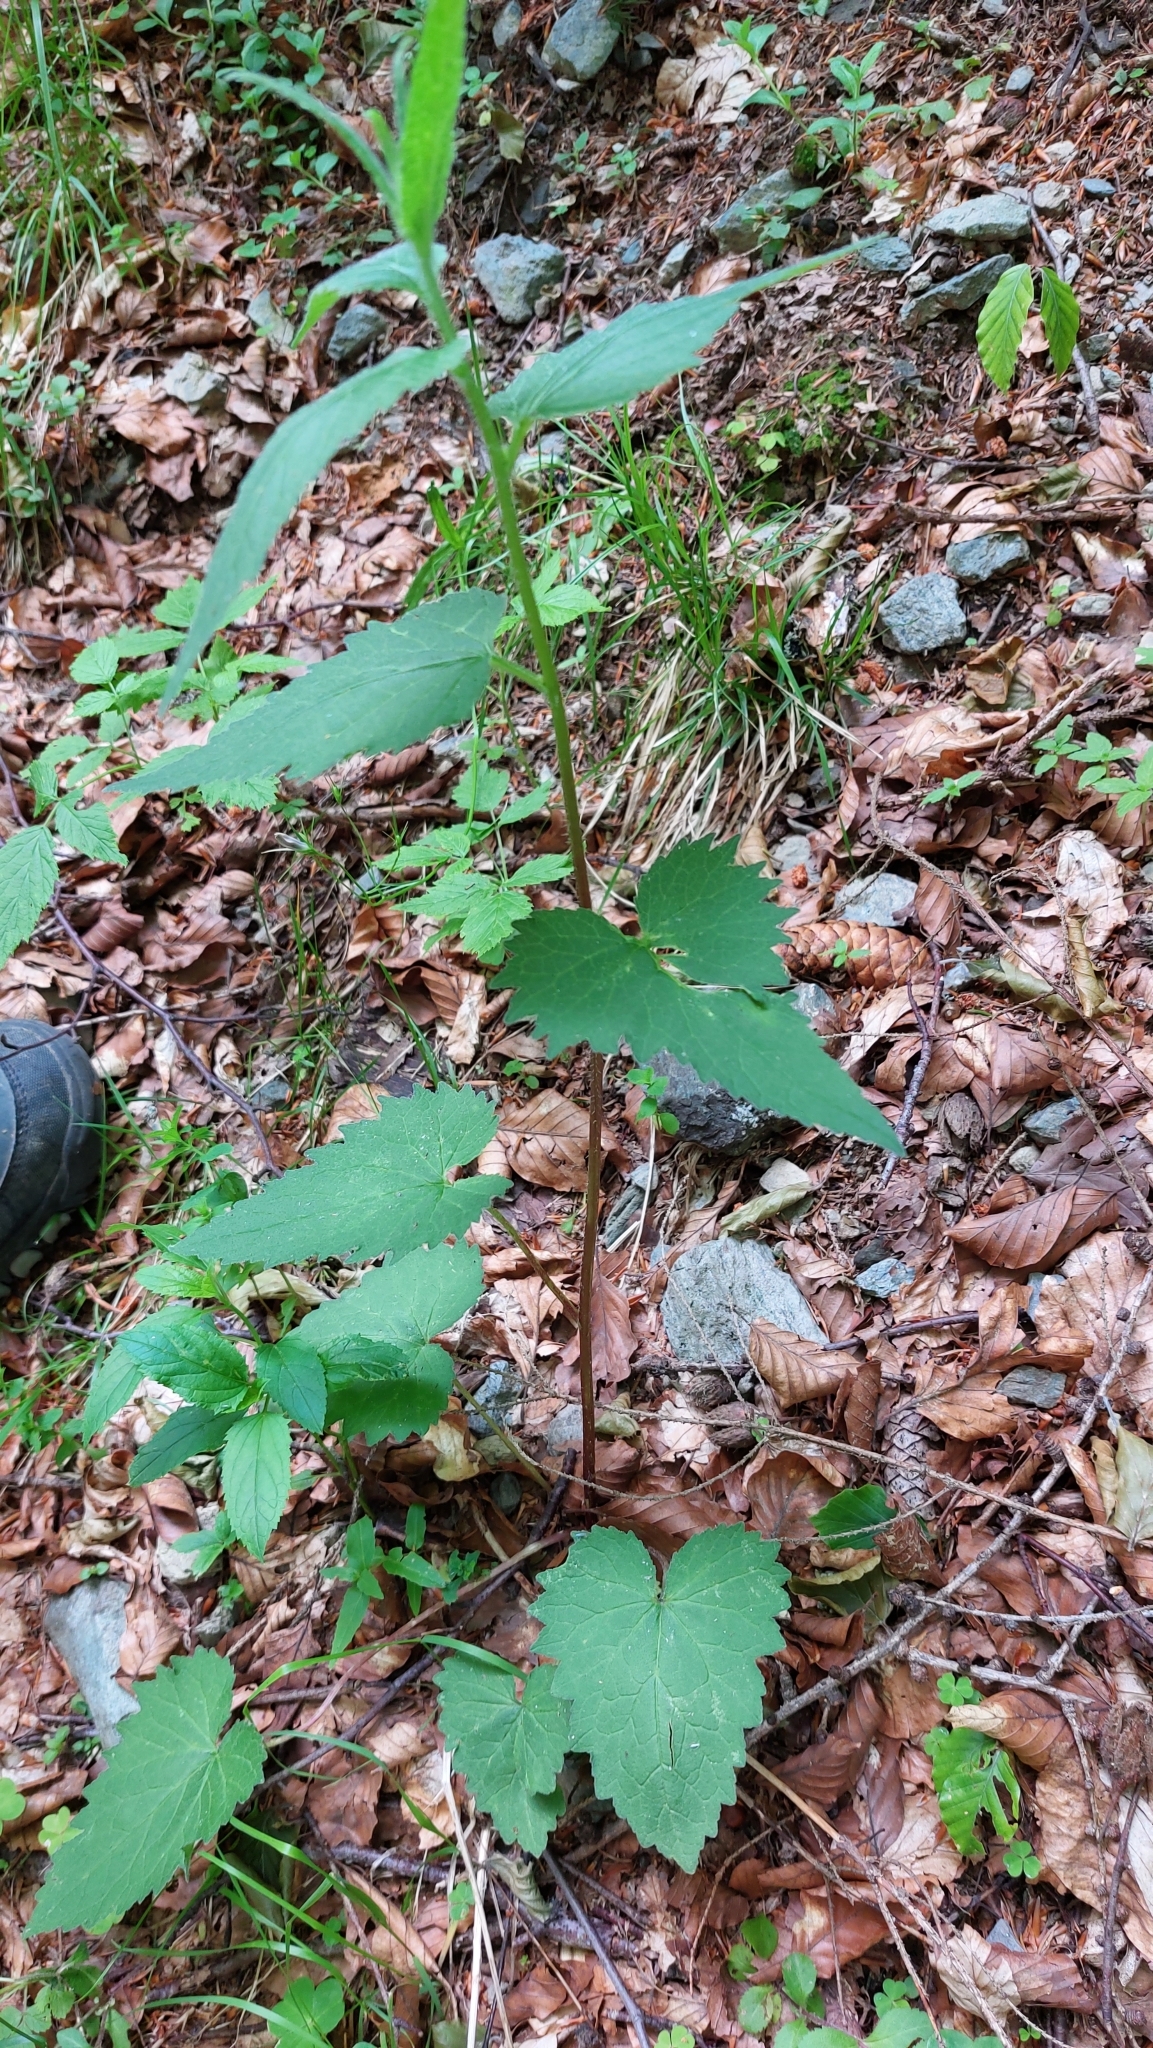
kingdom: Plantae
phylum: Tracheophyta
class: Magnoliopsida
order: Asterales
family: Campanulaceae
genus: Campanula
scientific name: Campanula trachelium
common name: Nettle-leaved bellflower
